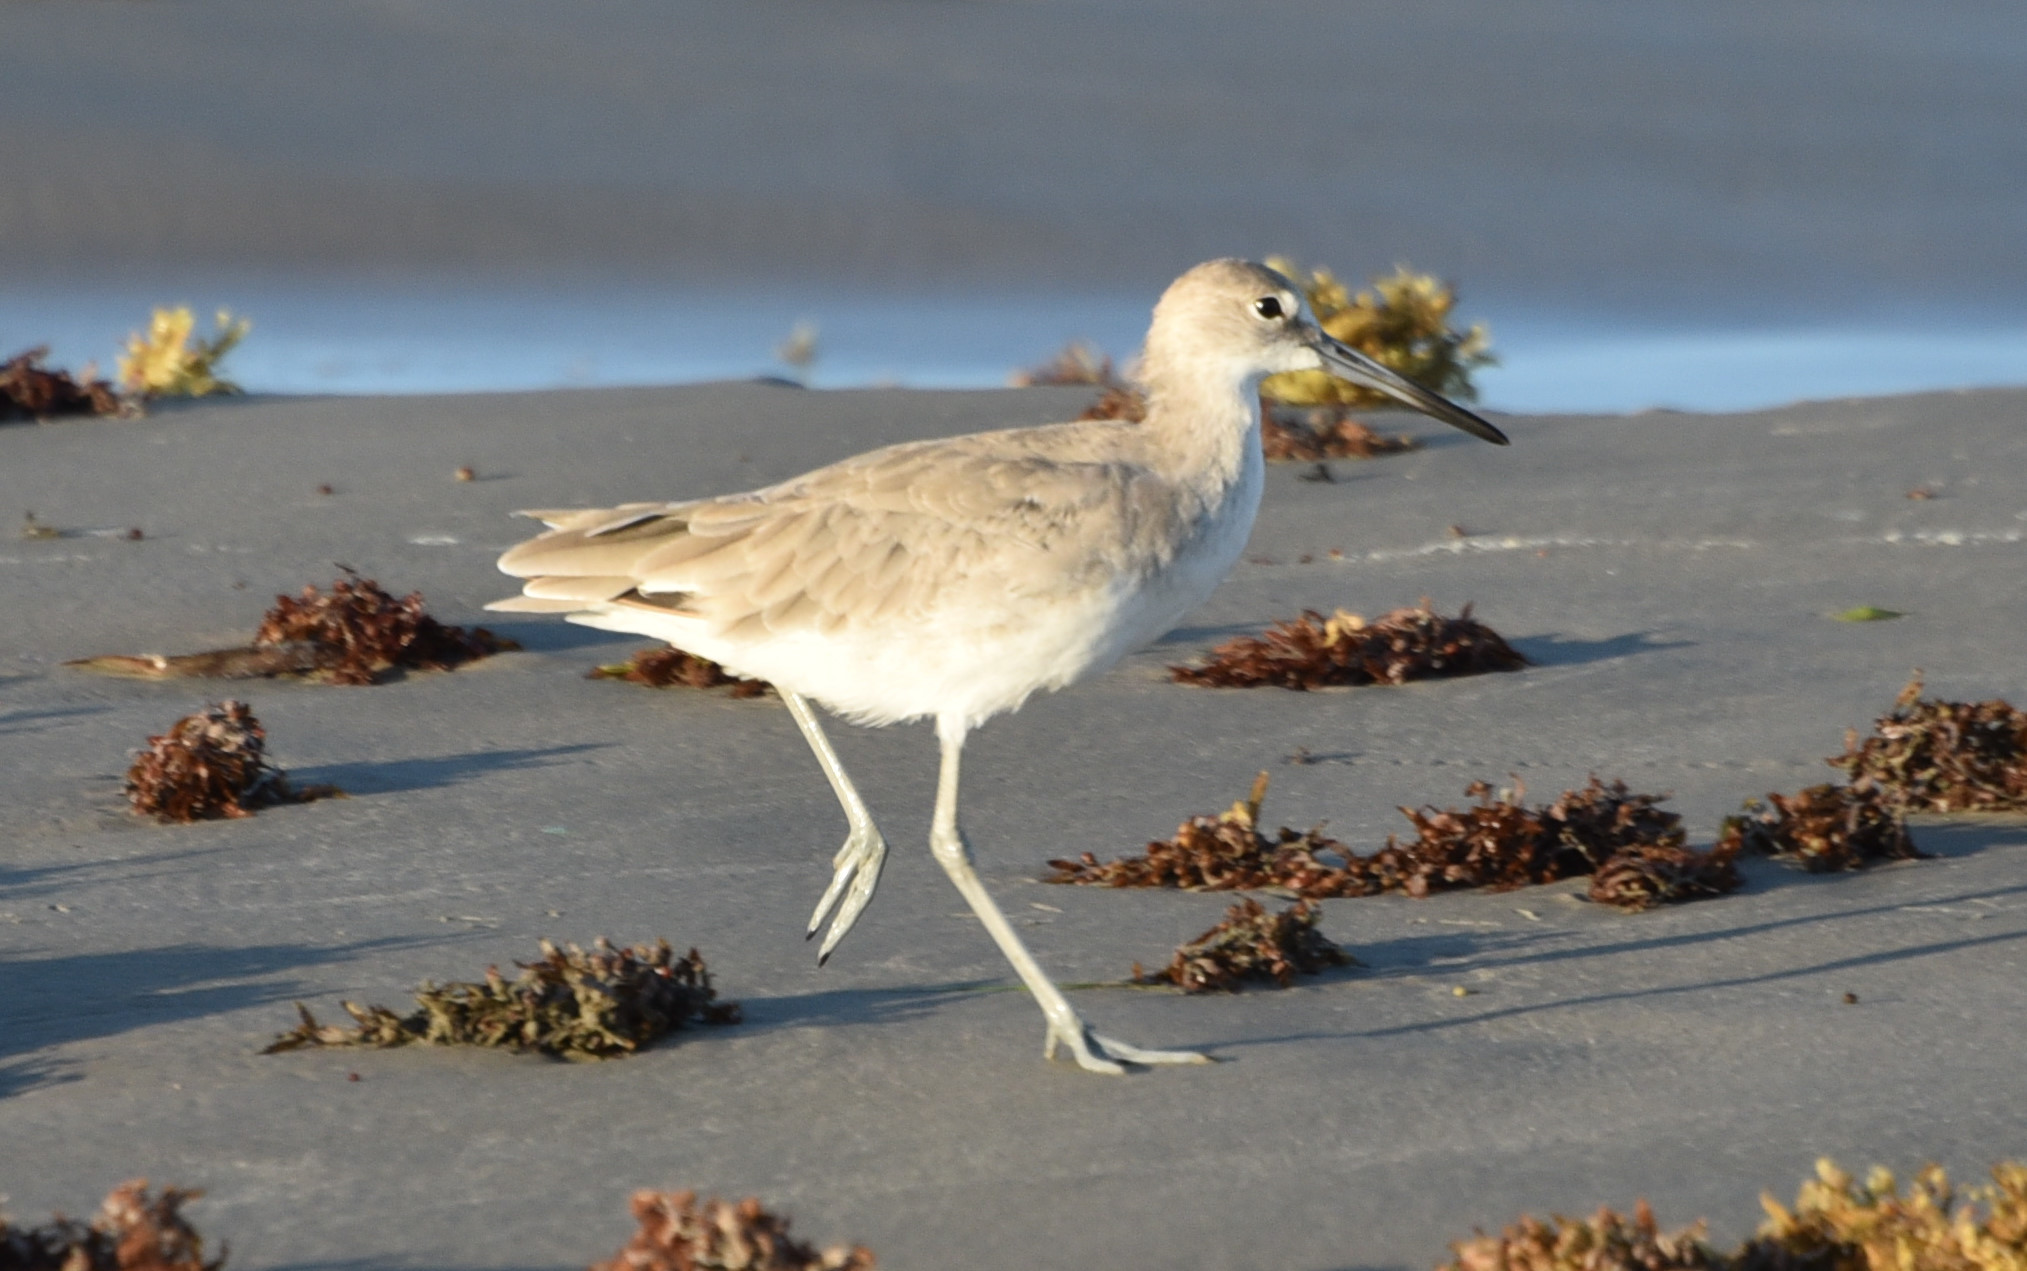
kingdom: Animalia
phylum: Chordata
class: Aves
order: Charadriiformes
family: Scolopacidae
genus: Tringa
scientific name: Tringa semipalmata
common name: Willet
